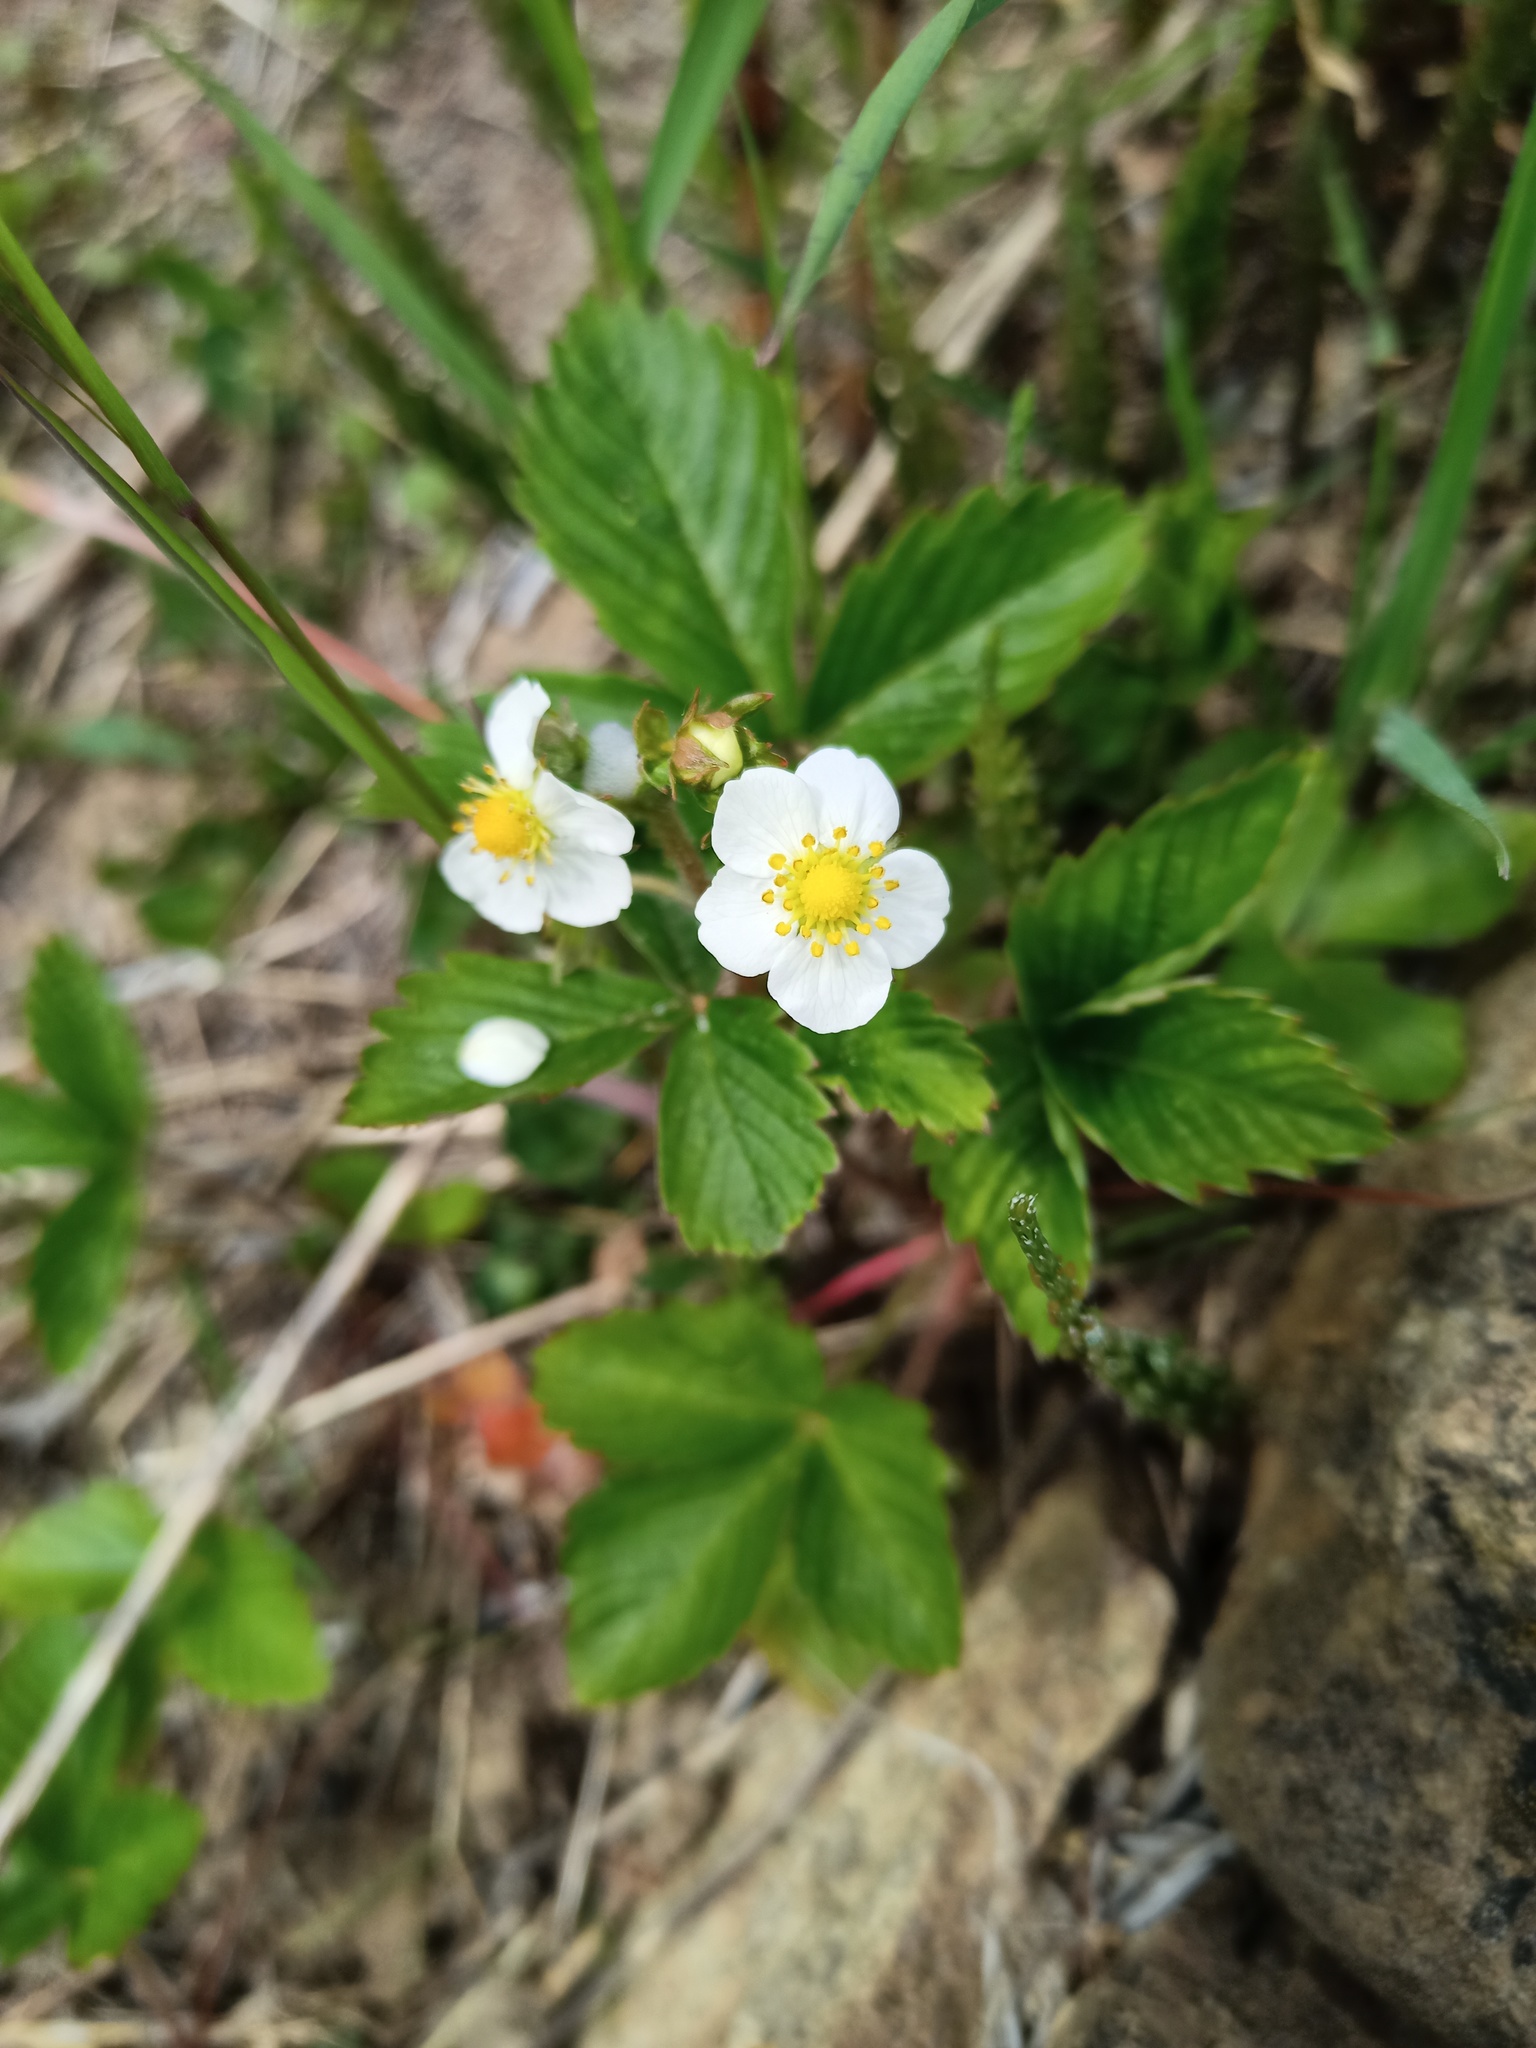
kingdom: Plantae
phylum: Tracheophyta
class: Magnoliopsida
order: Rosales
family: Rosaceae
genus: Fragaria
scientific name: Fragaria vesca
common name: Wild strawberry
